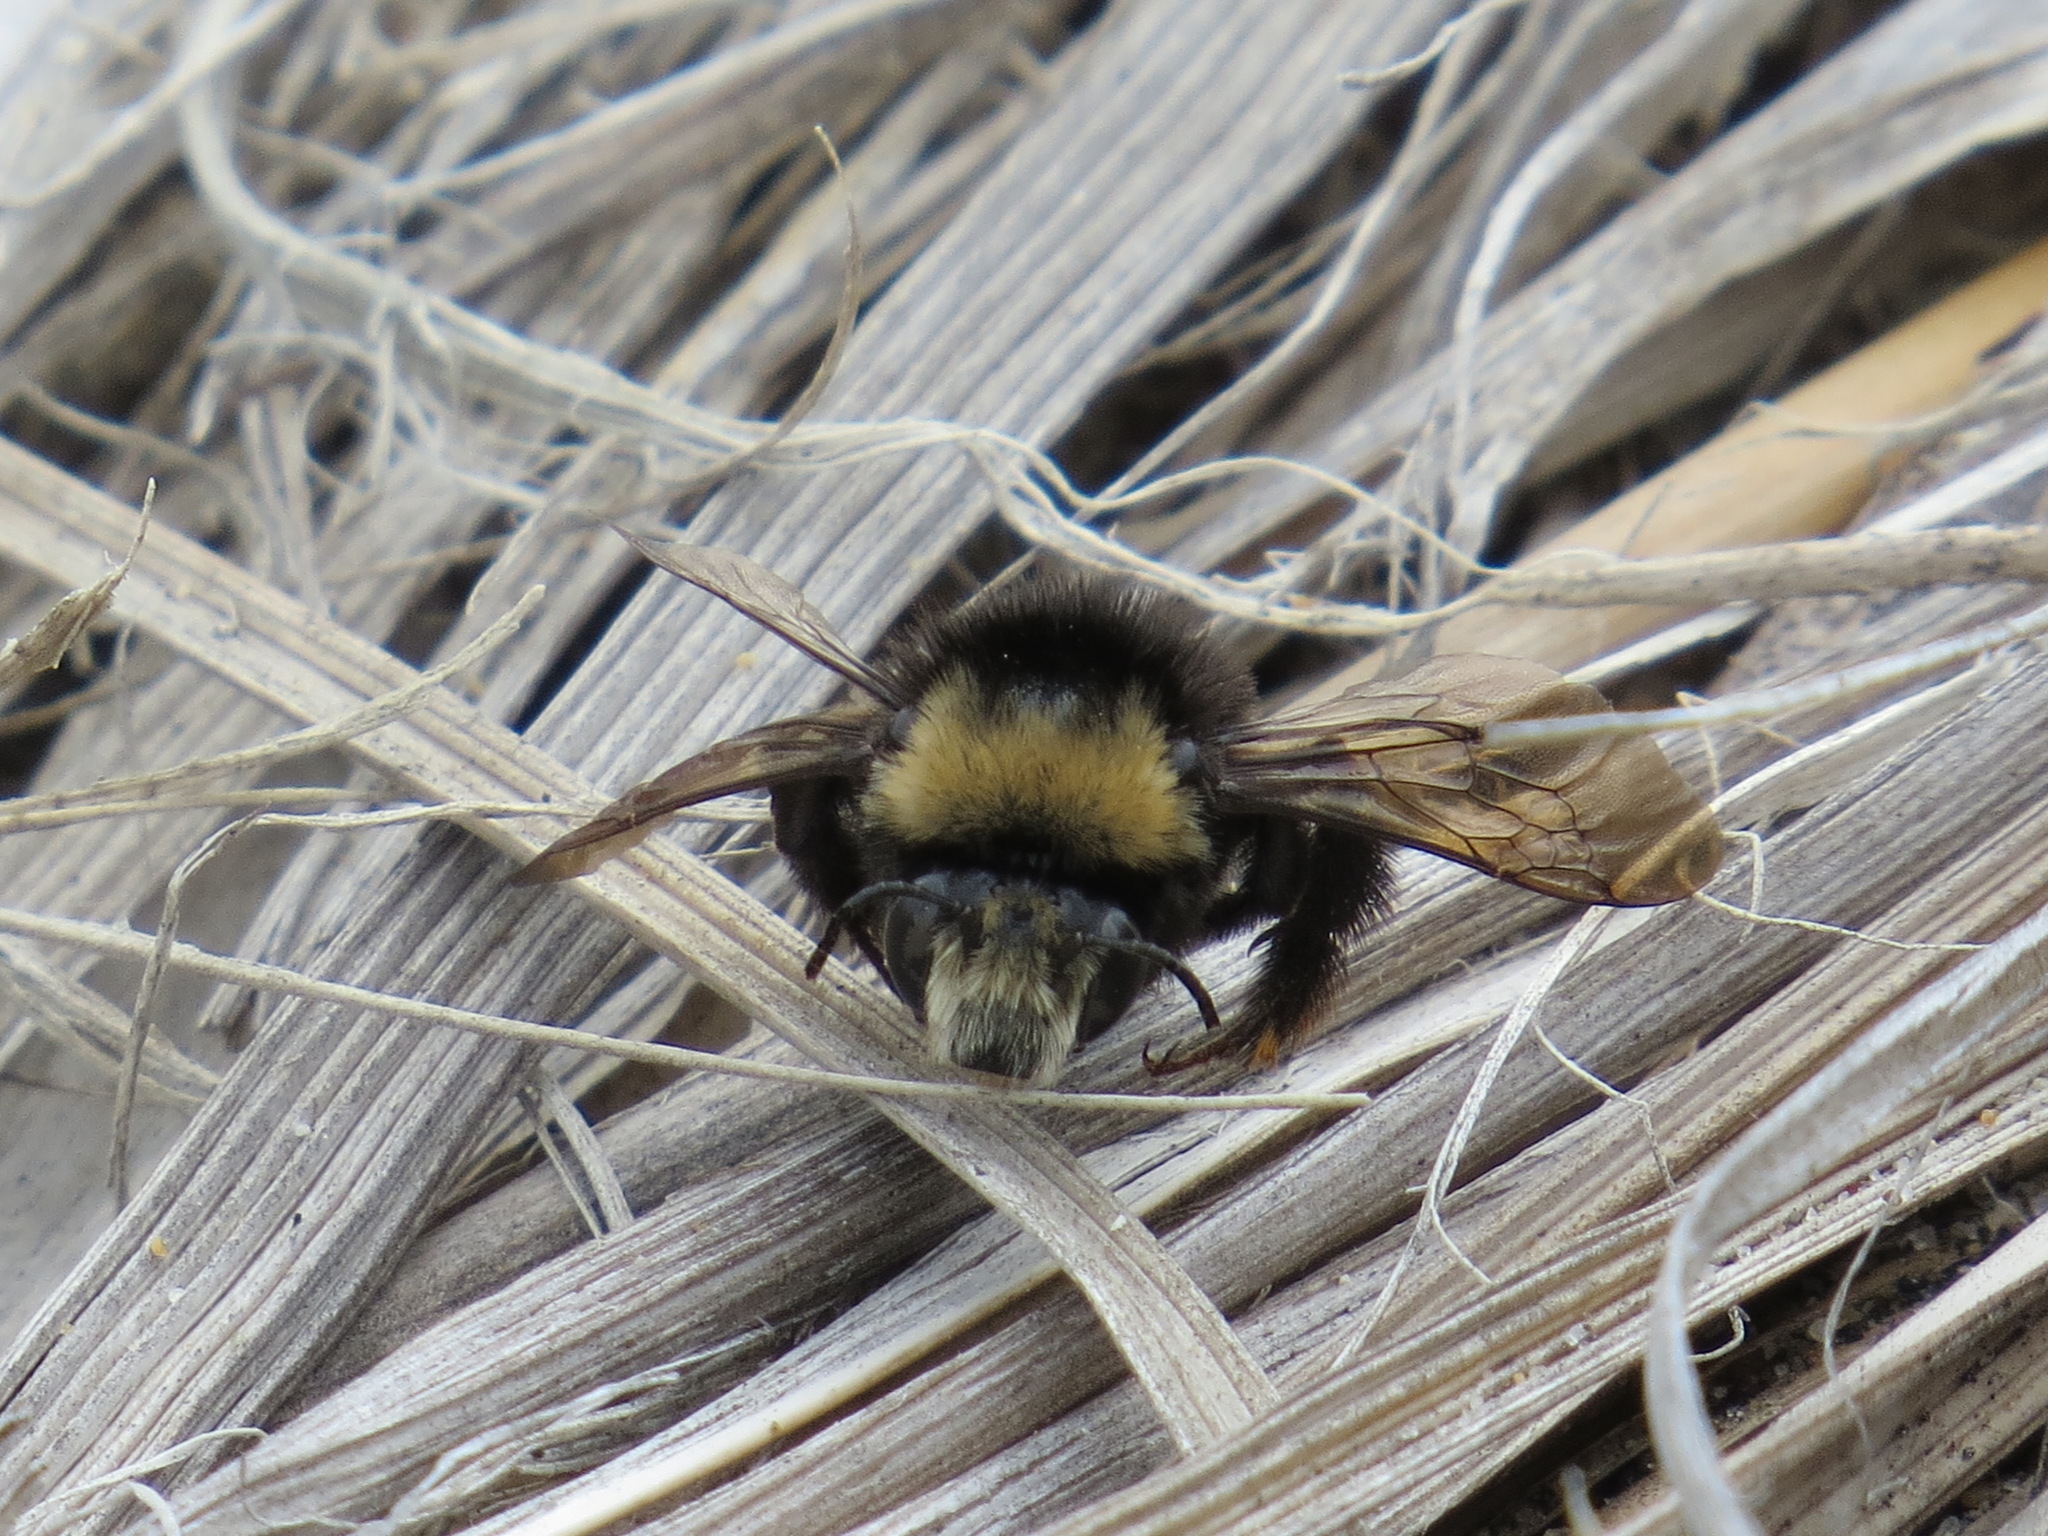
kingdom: Animalia
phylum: Arthropoda
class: Insecta
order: Hymenoptera
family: Apidae
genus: Anthophora
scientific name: Anthophora bomboides
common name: Bumble-bee-mimic digger bee
